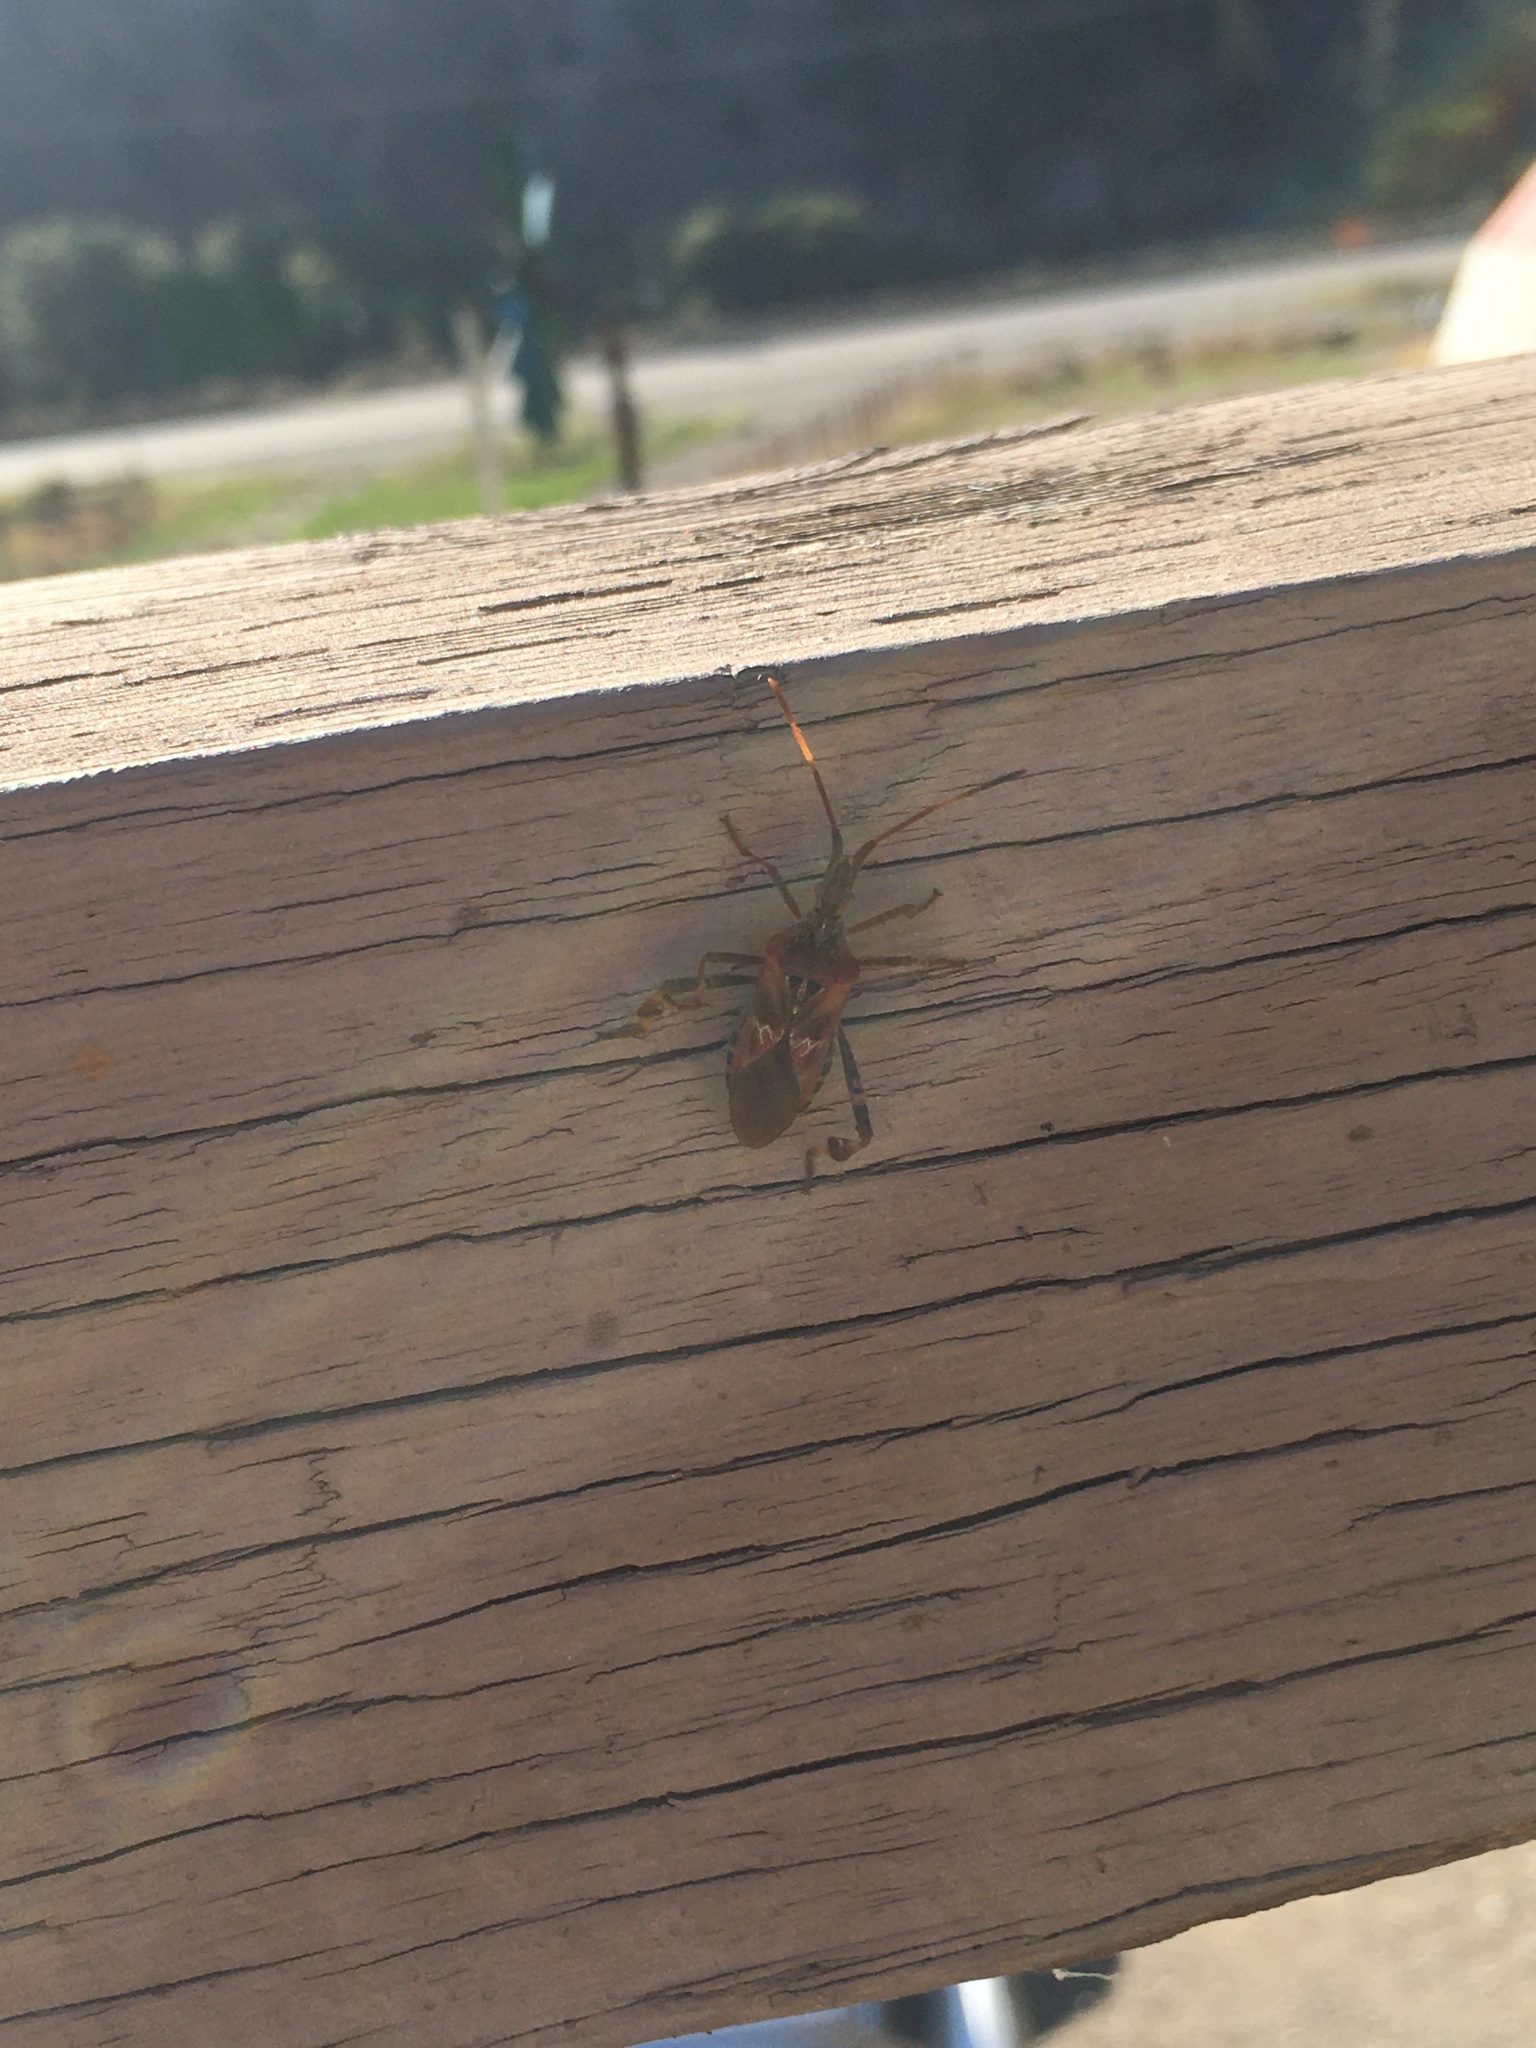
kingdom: Animalia
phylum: Arthropoda
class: Insecta
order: Hemiptera
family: Coreidae
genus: Leptoglossus
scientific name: Leptoglossus occidentalis
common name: Western conifer-seed bug
